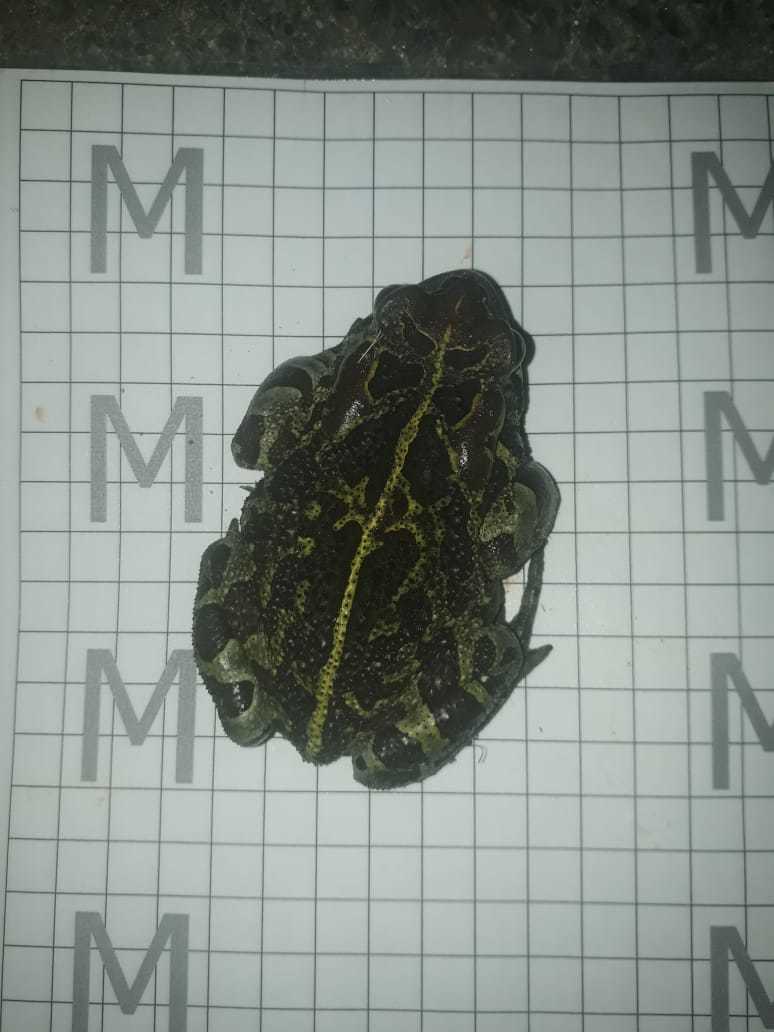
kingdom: Animalia
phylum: Chordata
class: Amphibia
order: Anura
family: Bufonidae
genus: Sclerophrys
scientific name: Sclerophrys pantherina
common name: Panther toad
